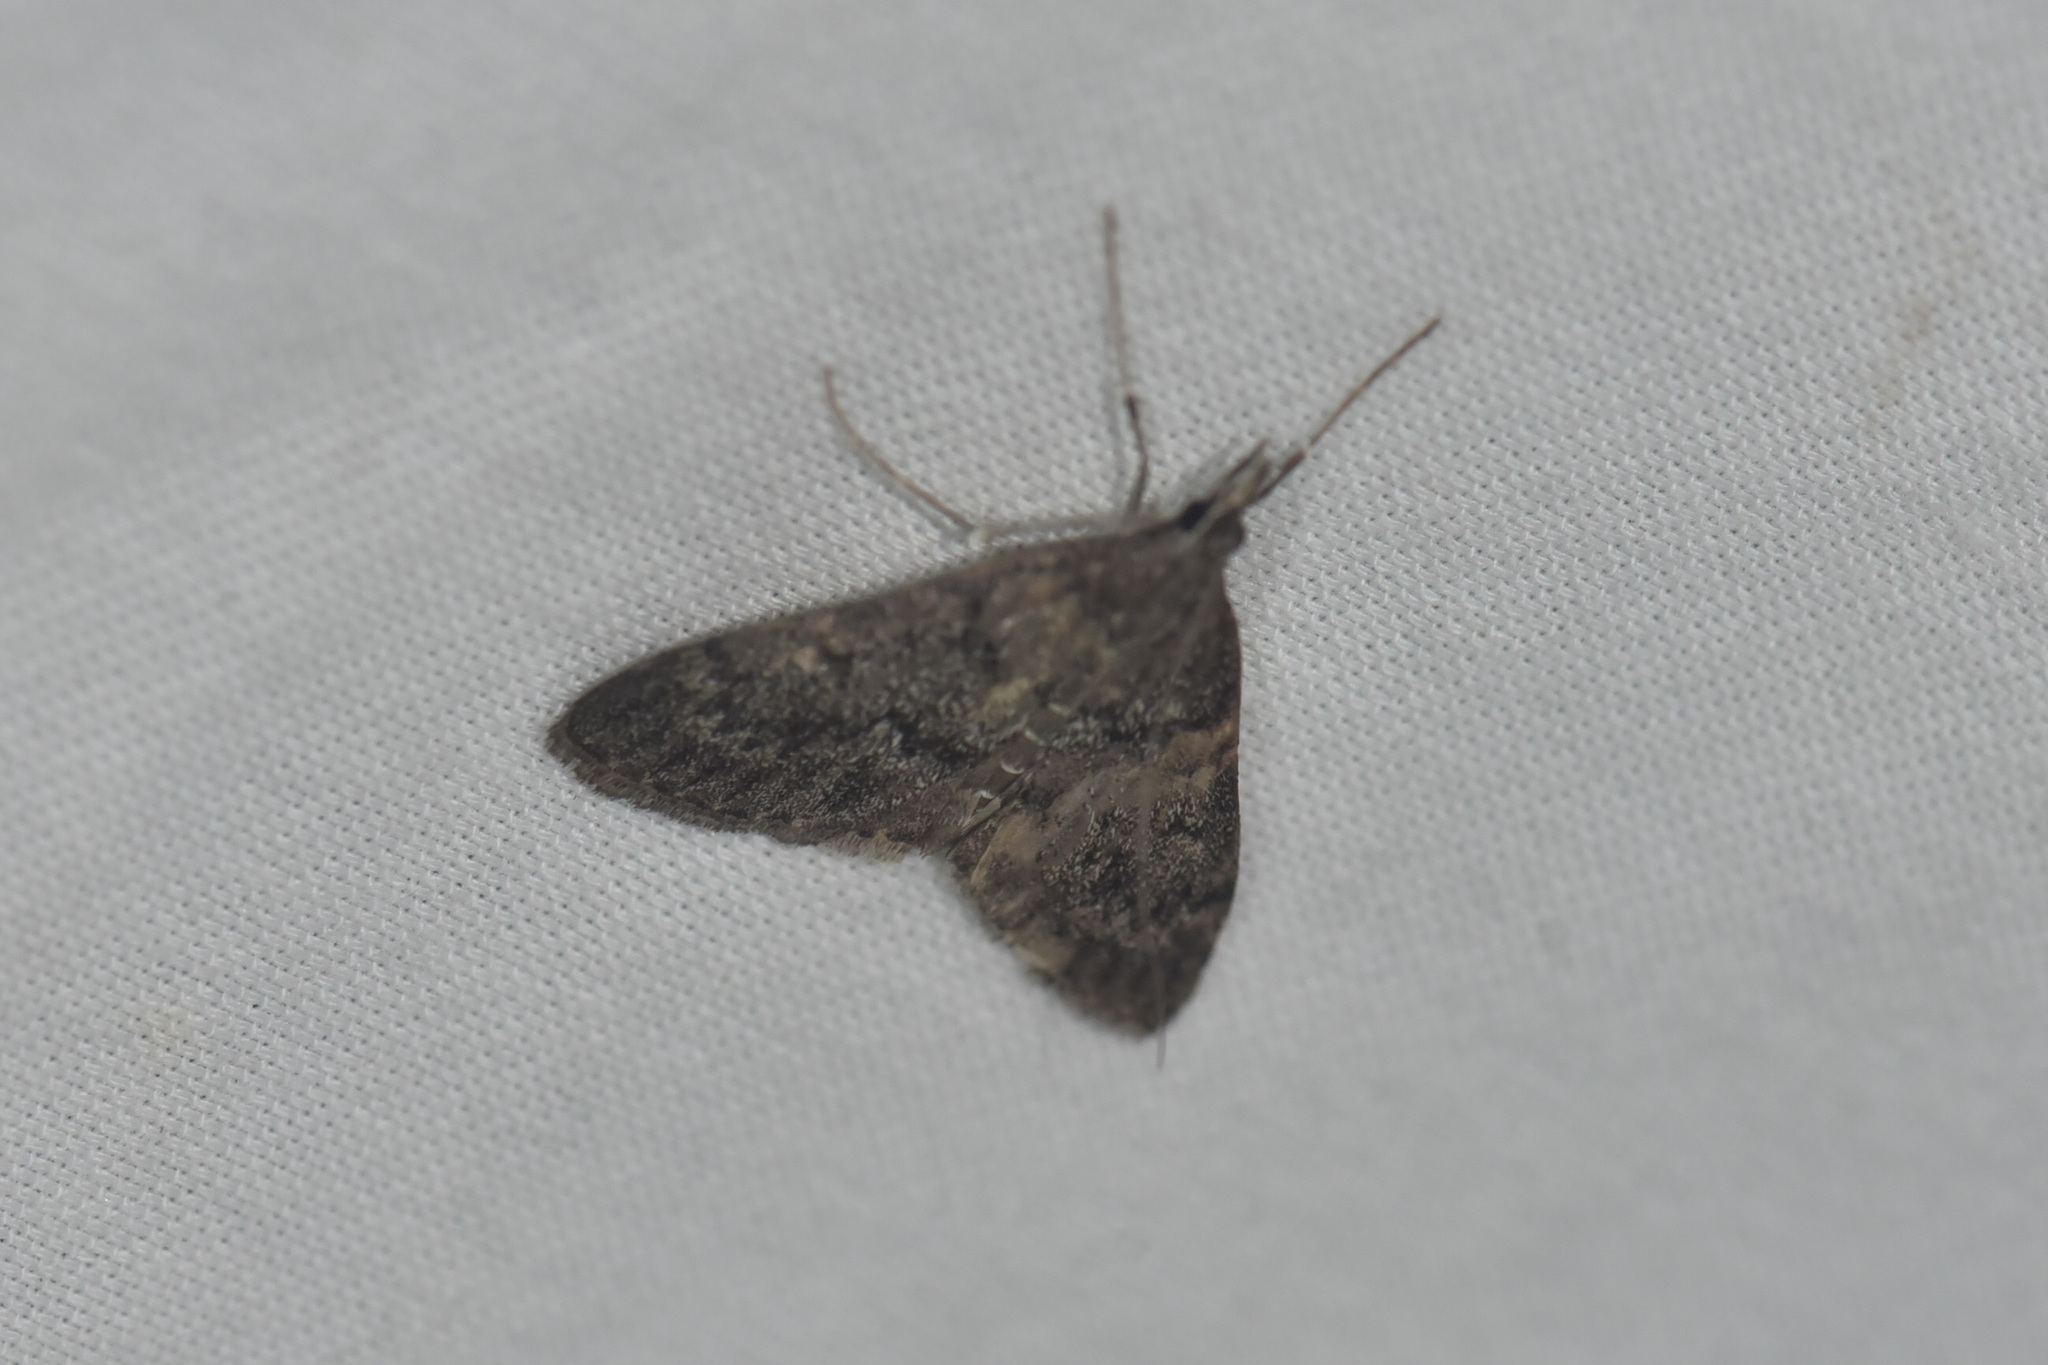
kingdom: Animalia
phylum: Arthropoda
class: Insecta
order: Lepidoptera
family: Crambidae
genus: Saucrobotys
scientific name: Saucrobotys fumoferalis
